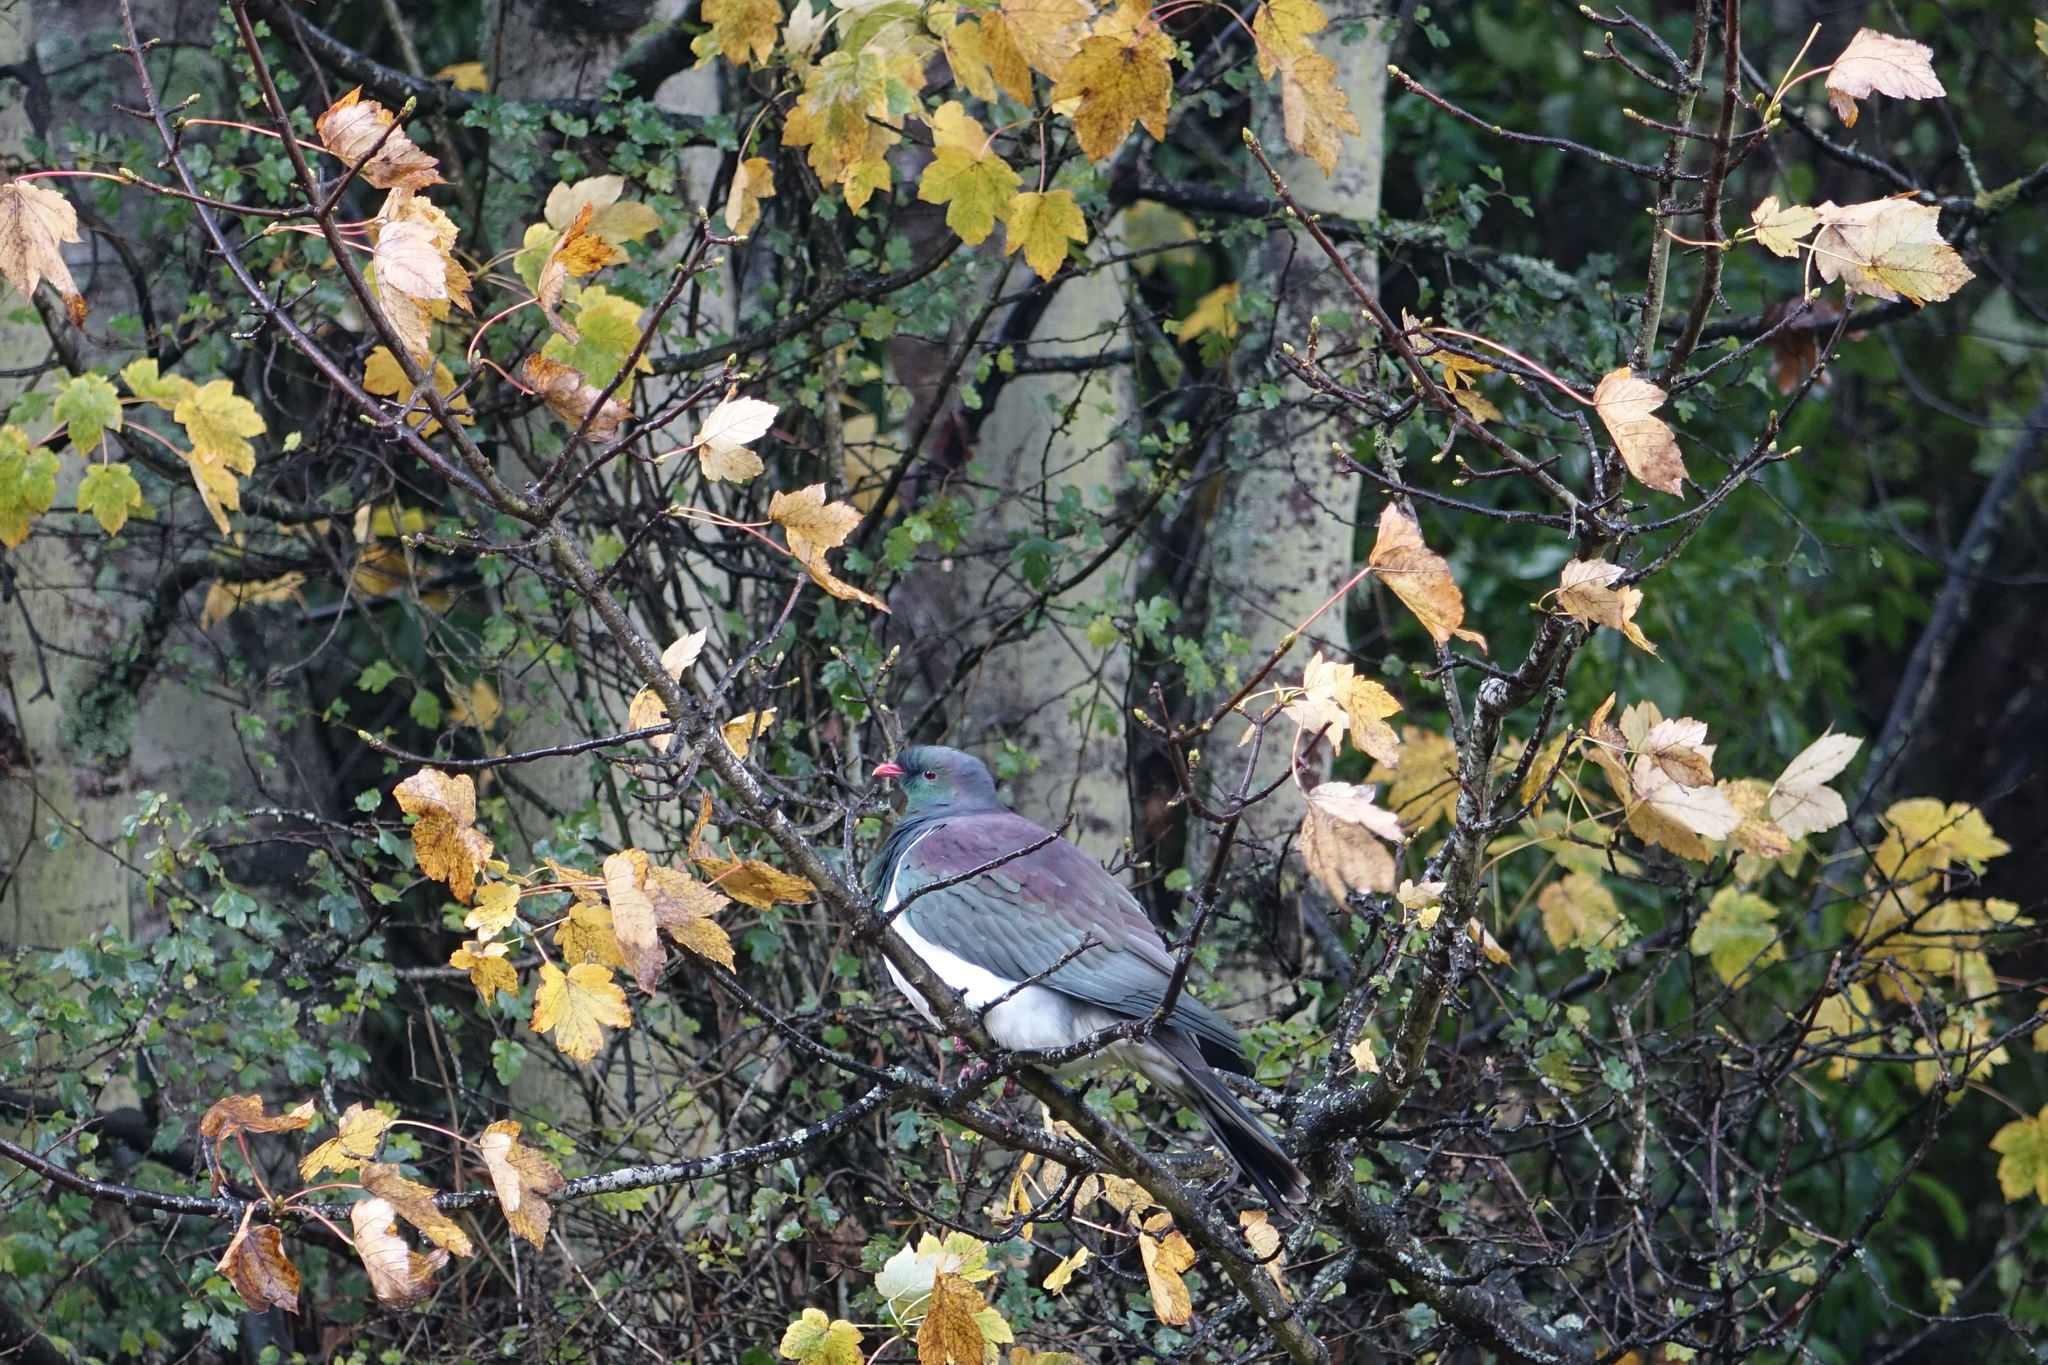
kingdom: Animalia
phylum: Chordata
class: Aves
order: Columbiformes
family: Columbidae
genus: Hemiphaga
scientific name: Hemiphaga novaeseelandiae
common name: New zealand pigeon
